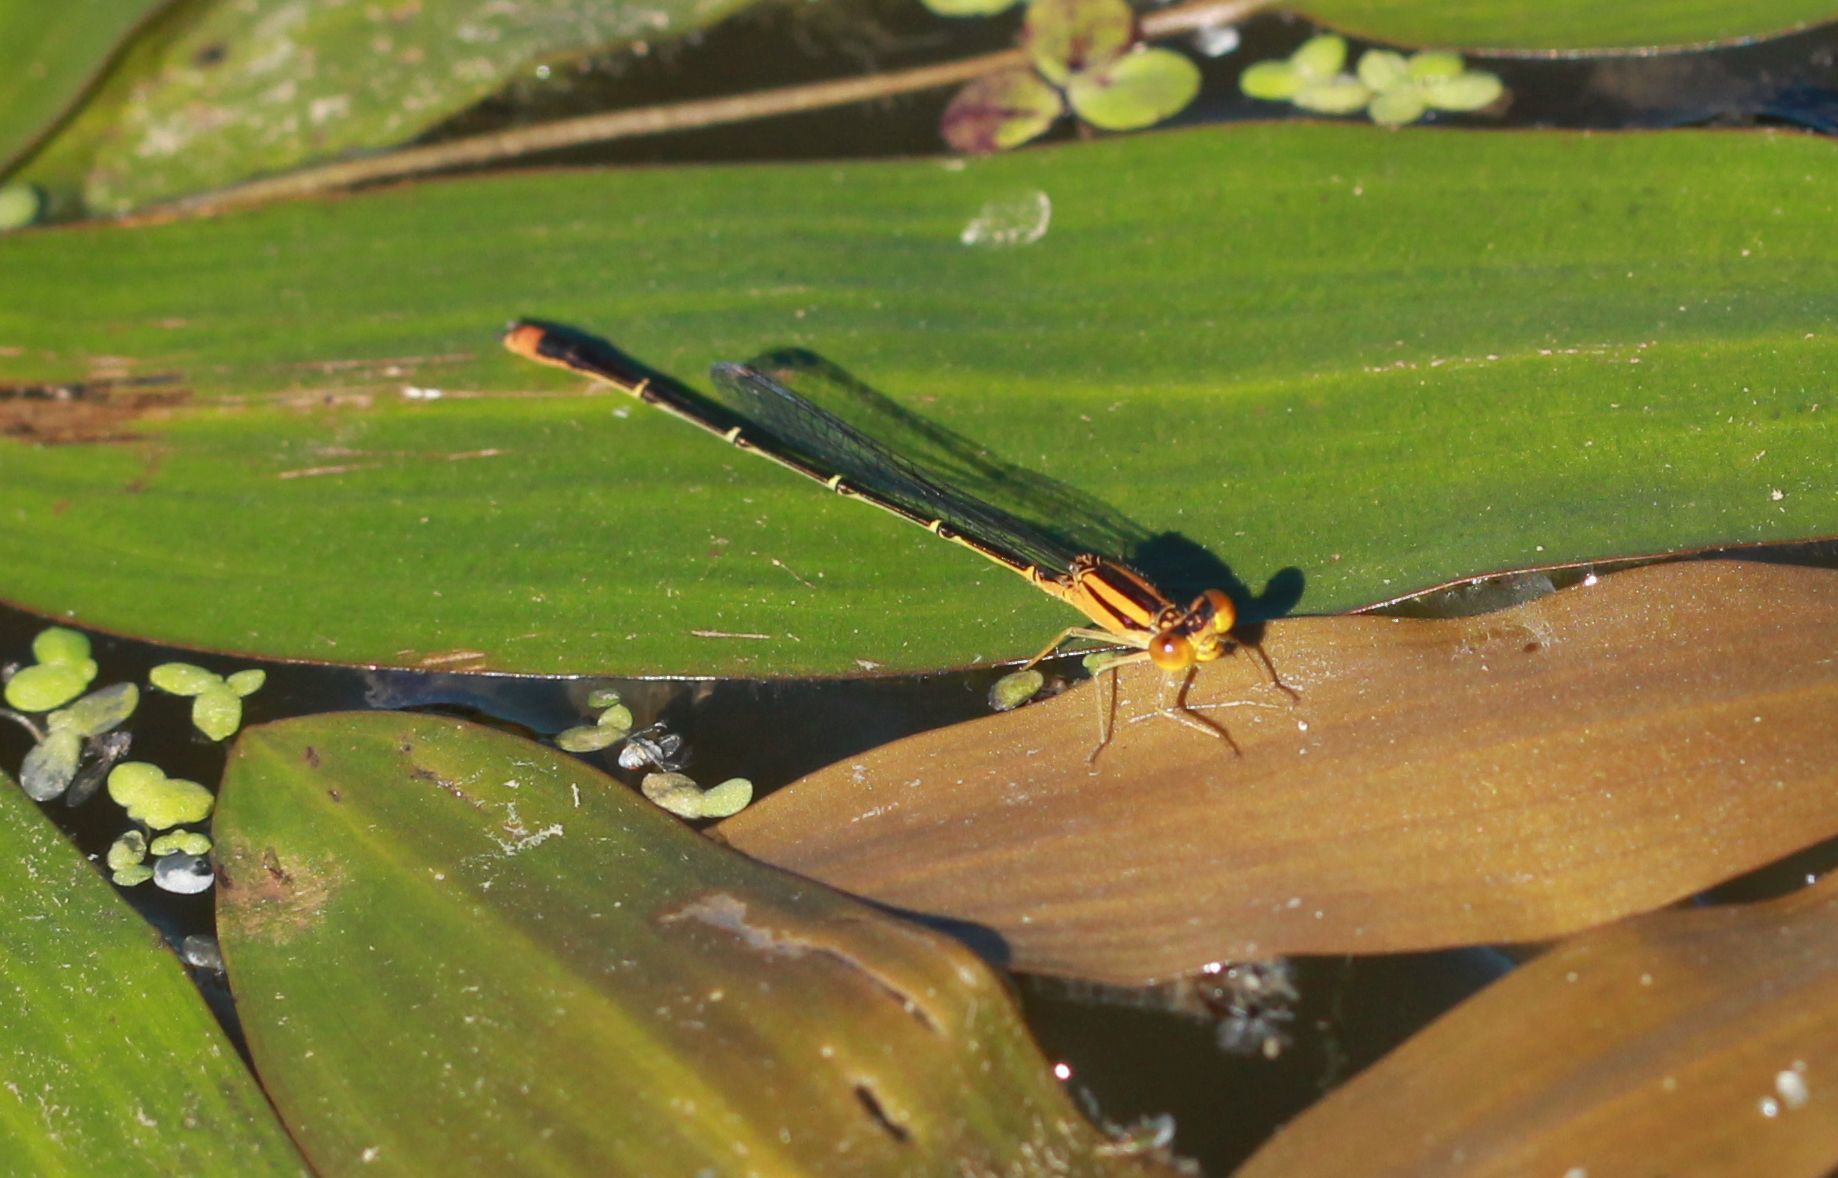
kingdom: Animalia
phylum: Arthropoda
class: Insecta
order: Odonata
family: Coenagrionidae
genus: Enallagma
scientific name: Enallagma signatum
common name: Orange bluet
